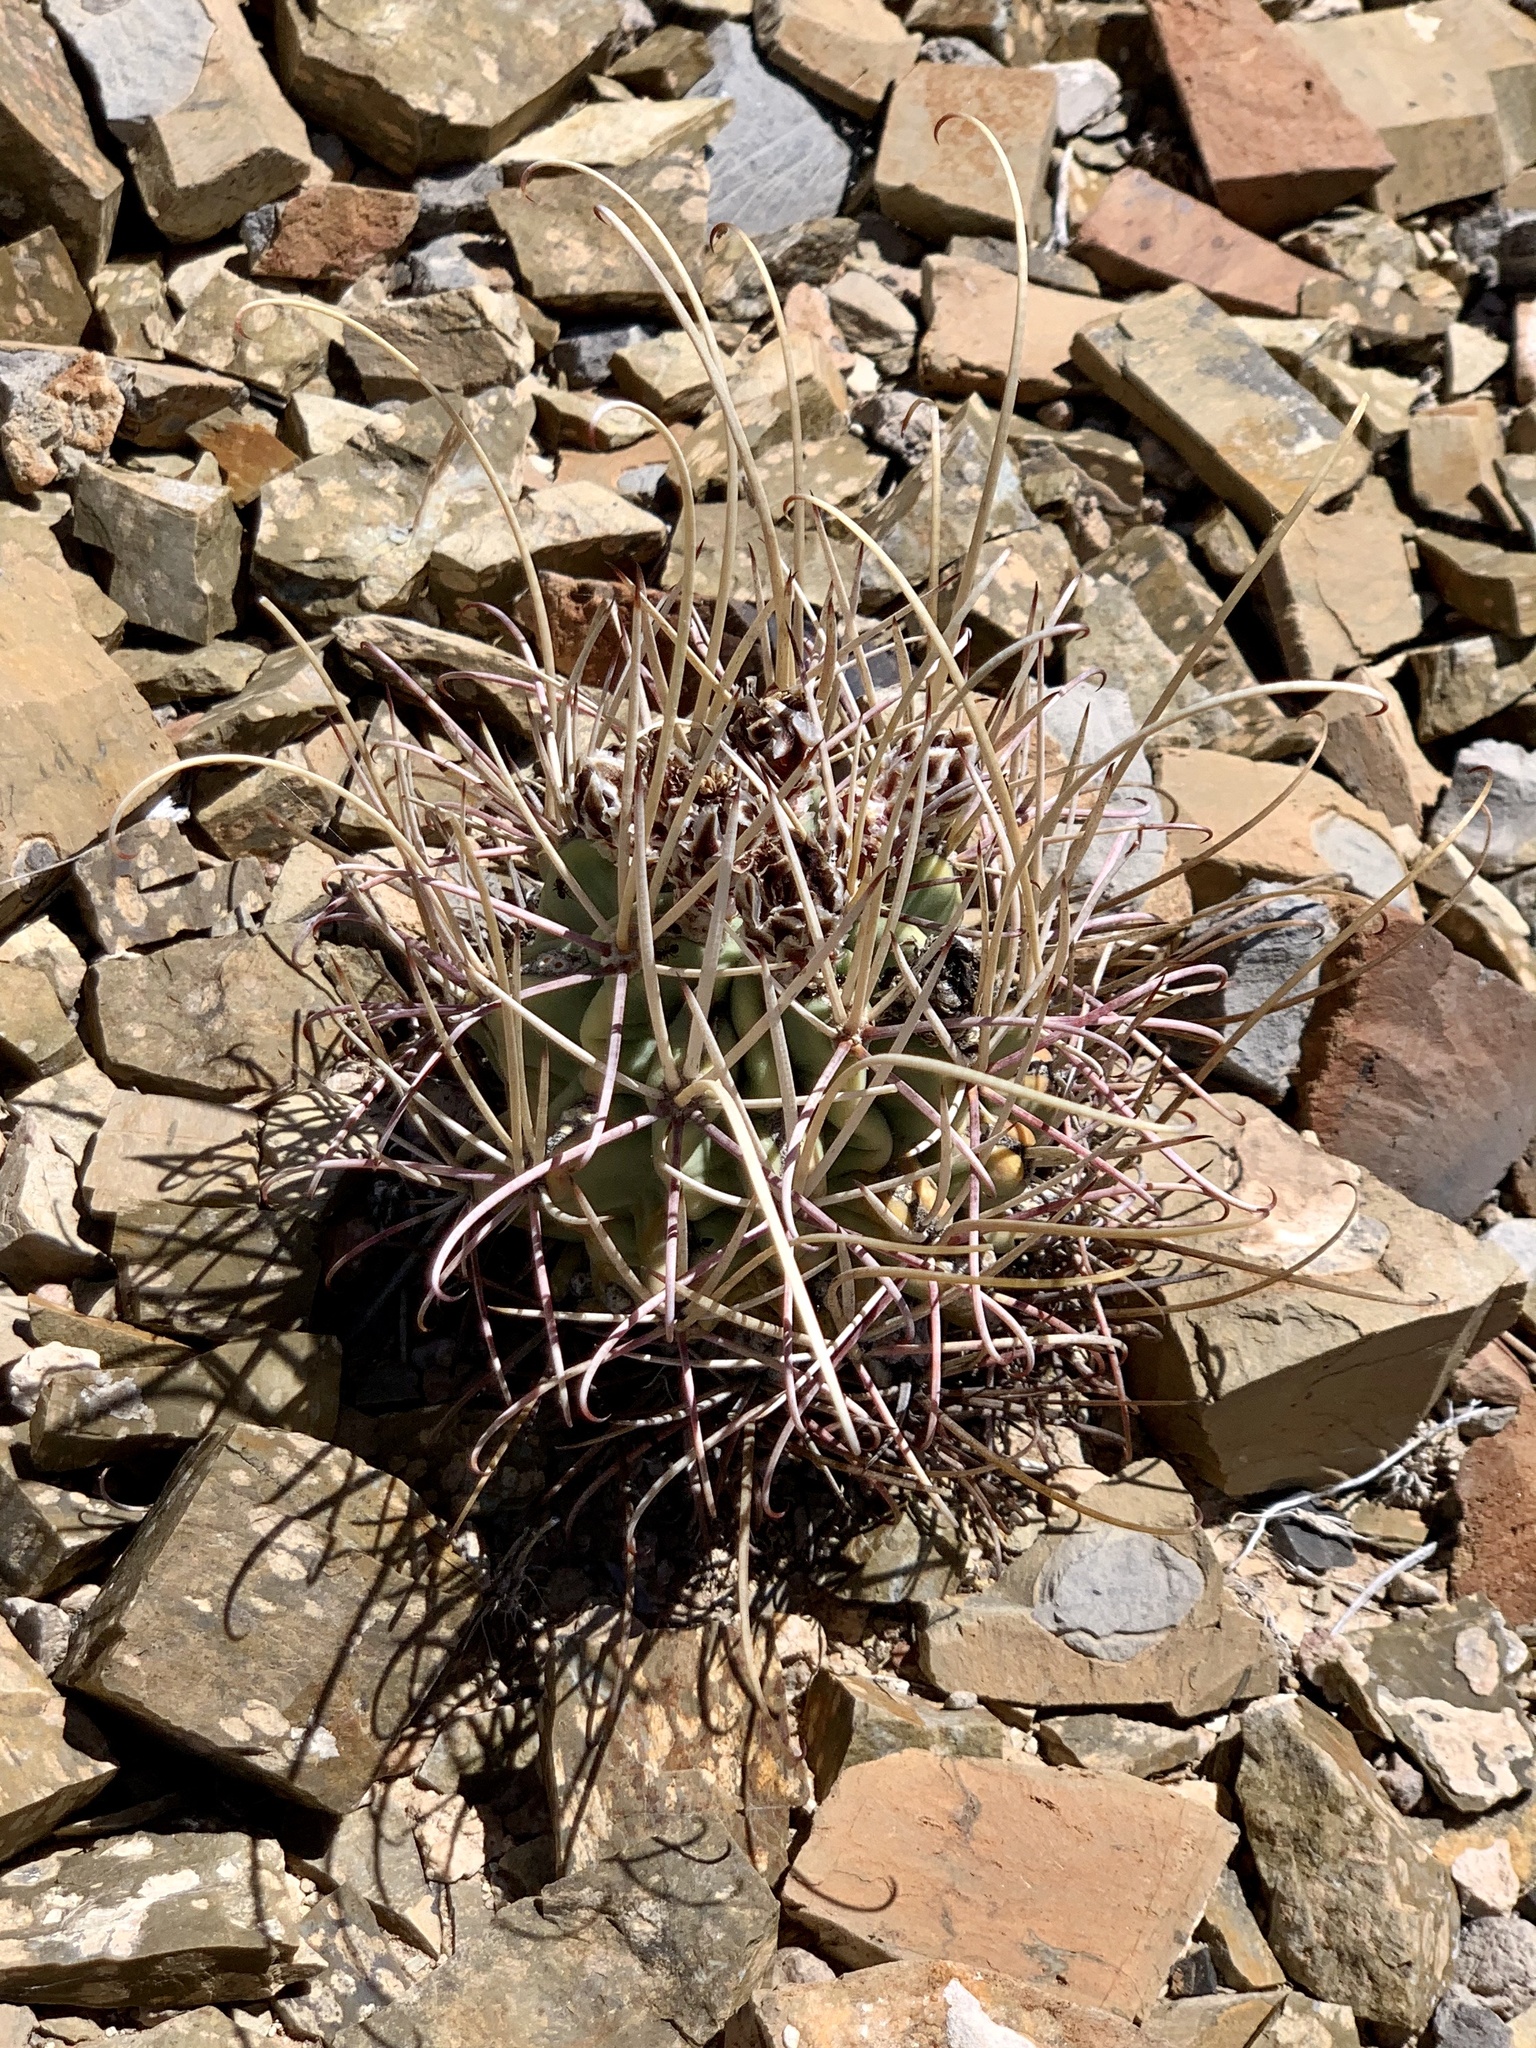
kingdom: Plantae
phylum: Tracheophyta
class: Magnoliopsida
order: Caryophyllales
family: Cactaceae
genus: Ferocactus
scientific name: Ferocactus uncinatus
